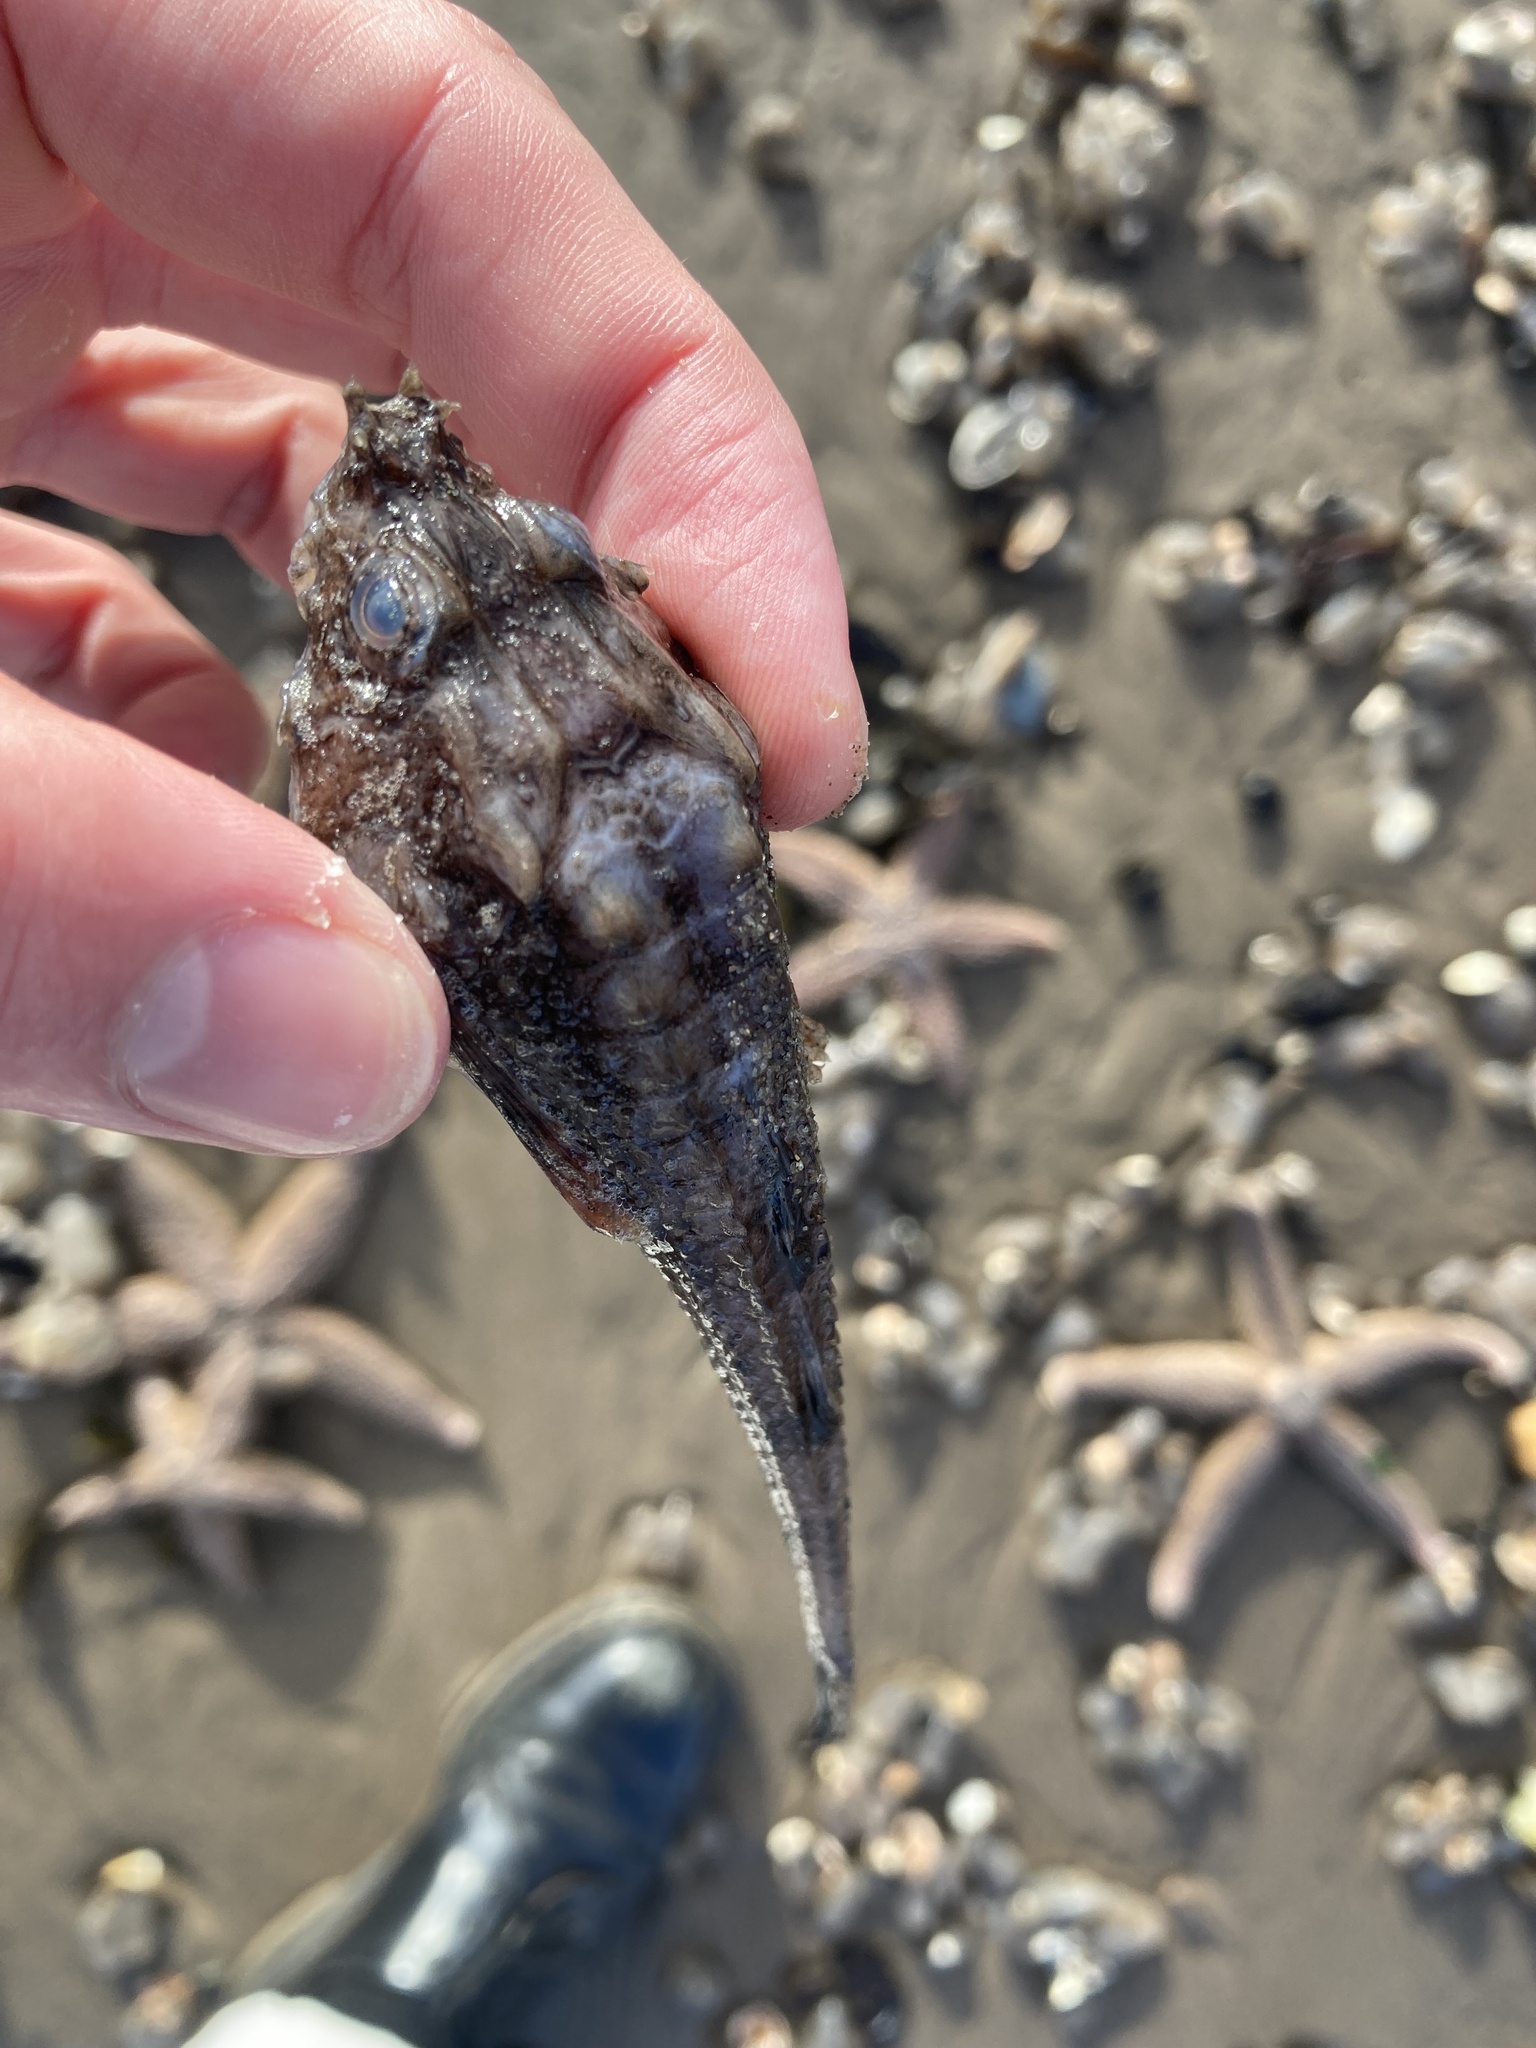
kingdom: Animalia
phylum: Chordata
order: Scorpaeniformes
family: Agonidae
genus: Agonus
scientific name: Agonus cataphractus
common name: Pogge
